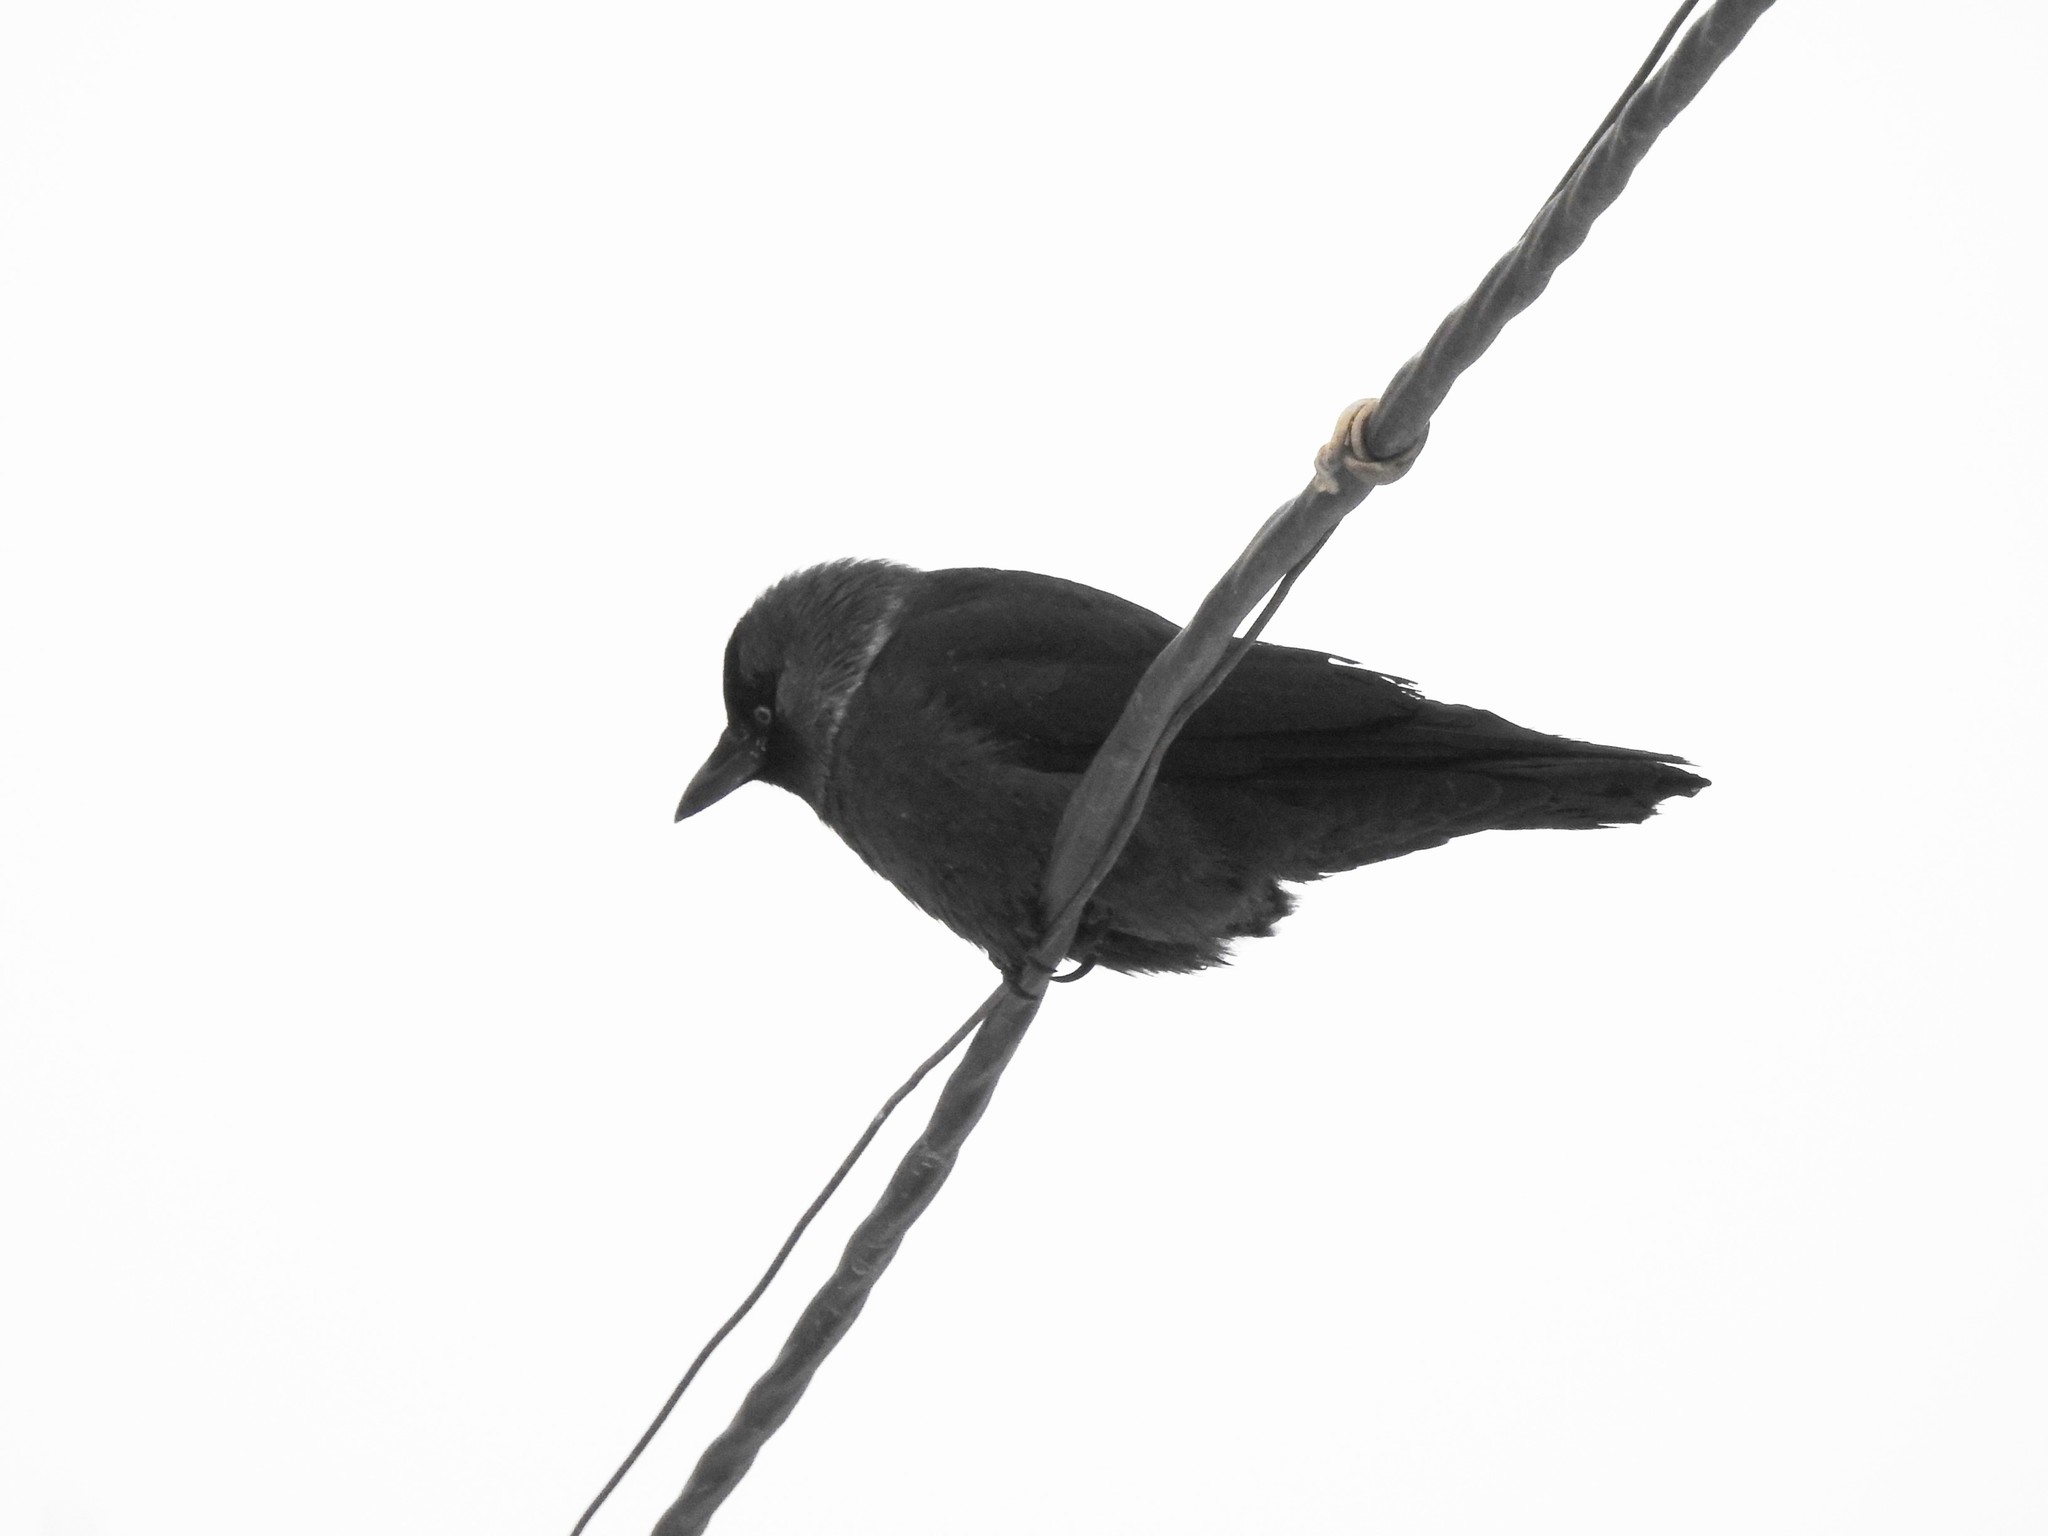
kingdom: Animalia
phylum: Chordata
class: Aves
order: Passeriformes
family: Corvidae
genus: Coloeus
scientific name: Coloeus monedula
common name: Western jackdaw
